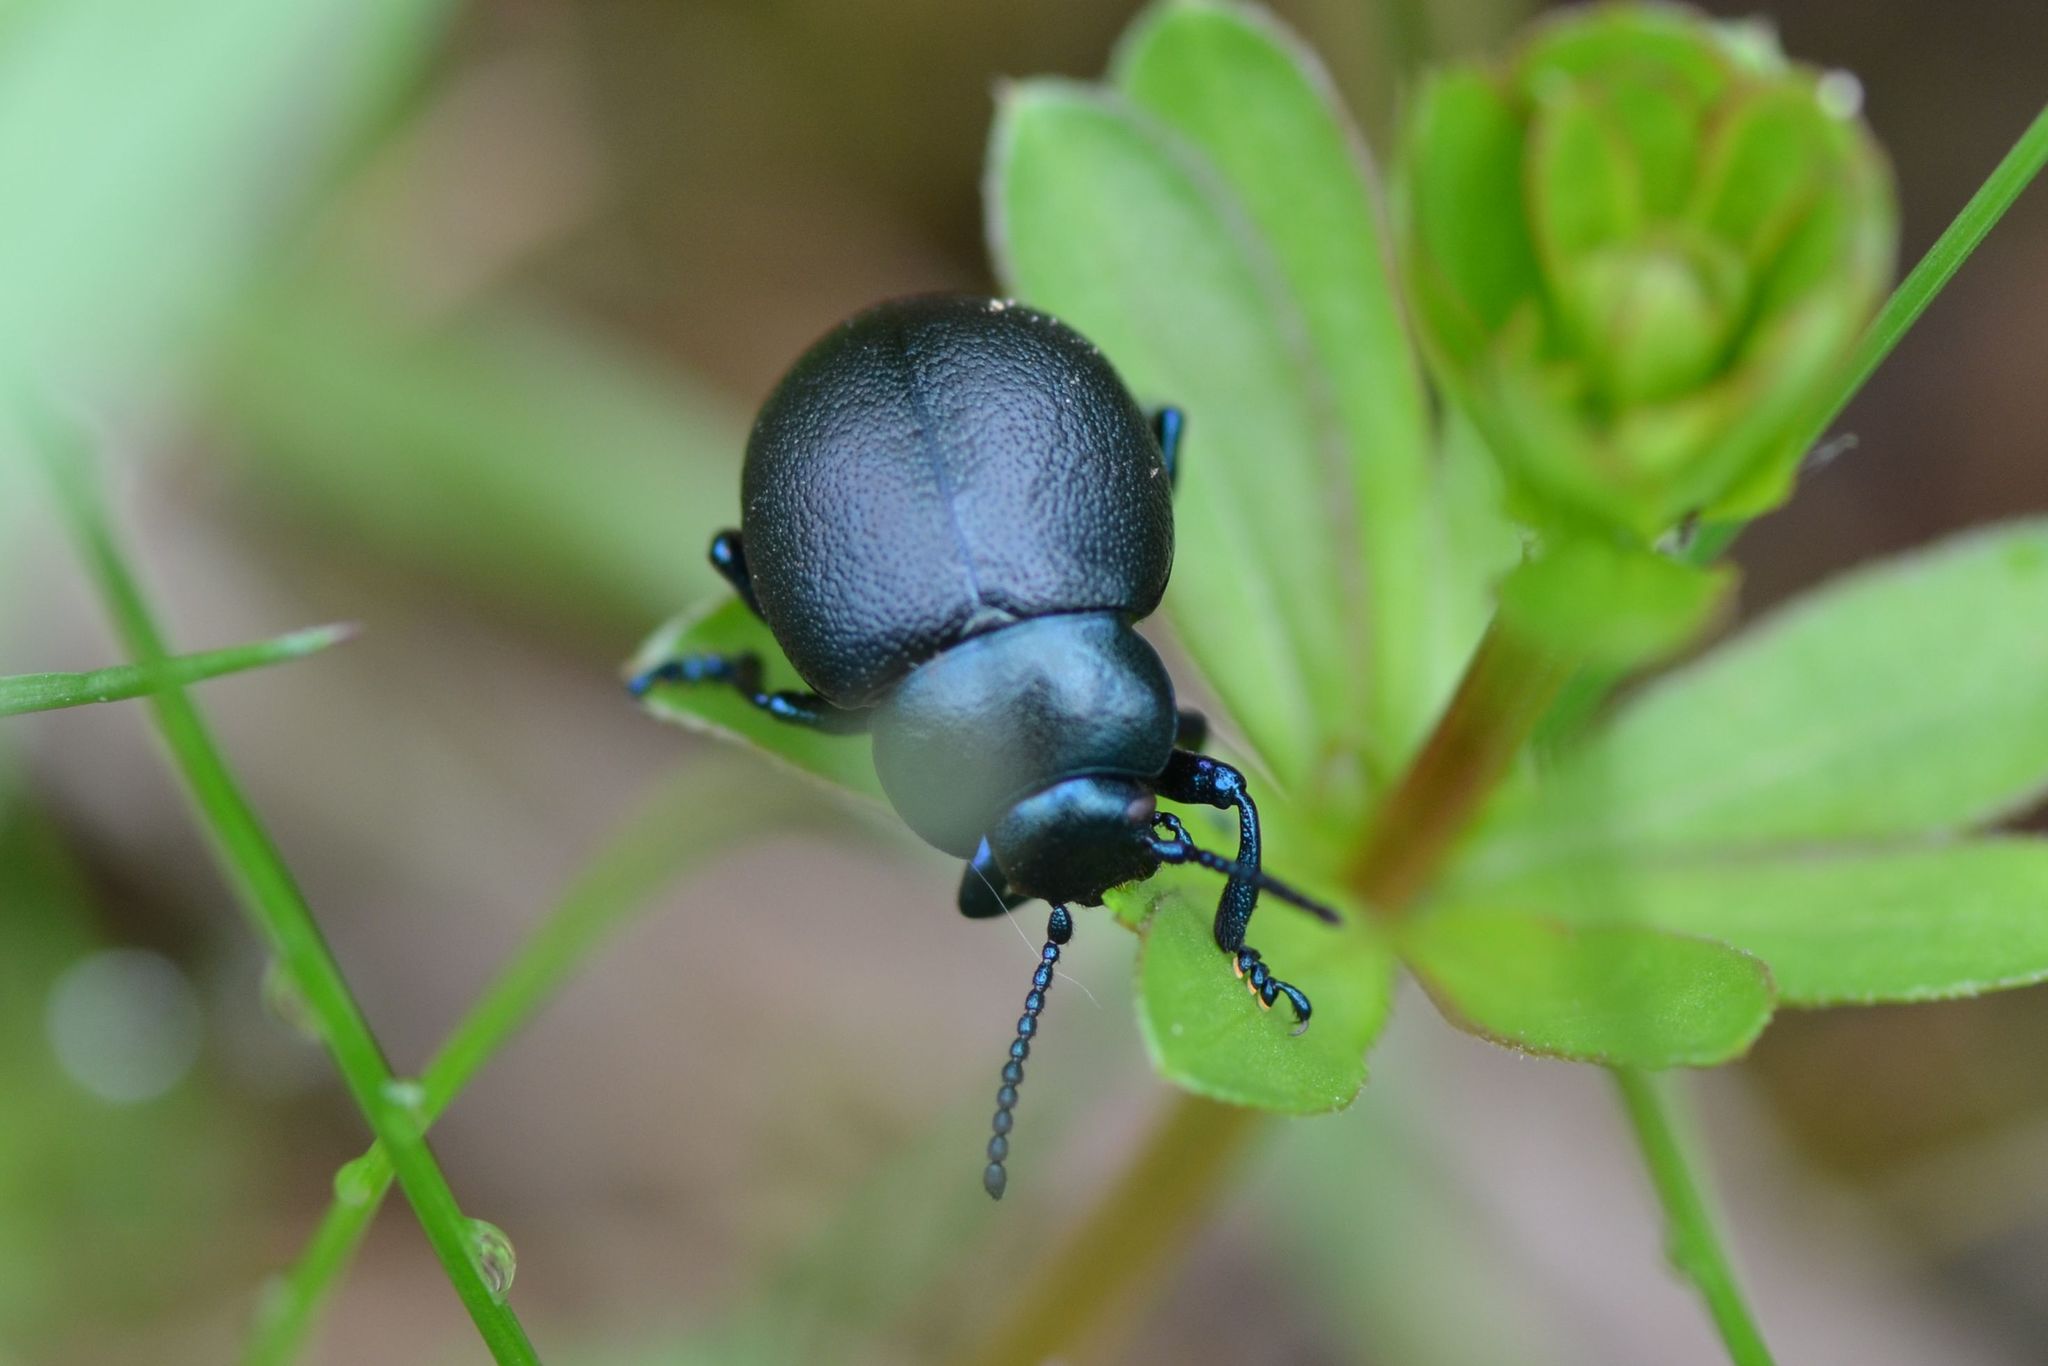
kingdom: Animalia
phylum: Arthropoda
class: Insecta
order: Coleoptera
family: Chrysomelidae
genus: Timarcha
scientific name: Timarcha goettingensis
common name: Small bloody-nosed beetle
